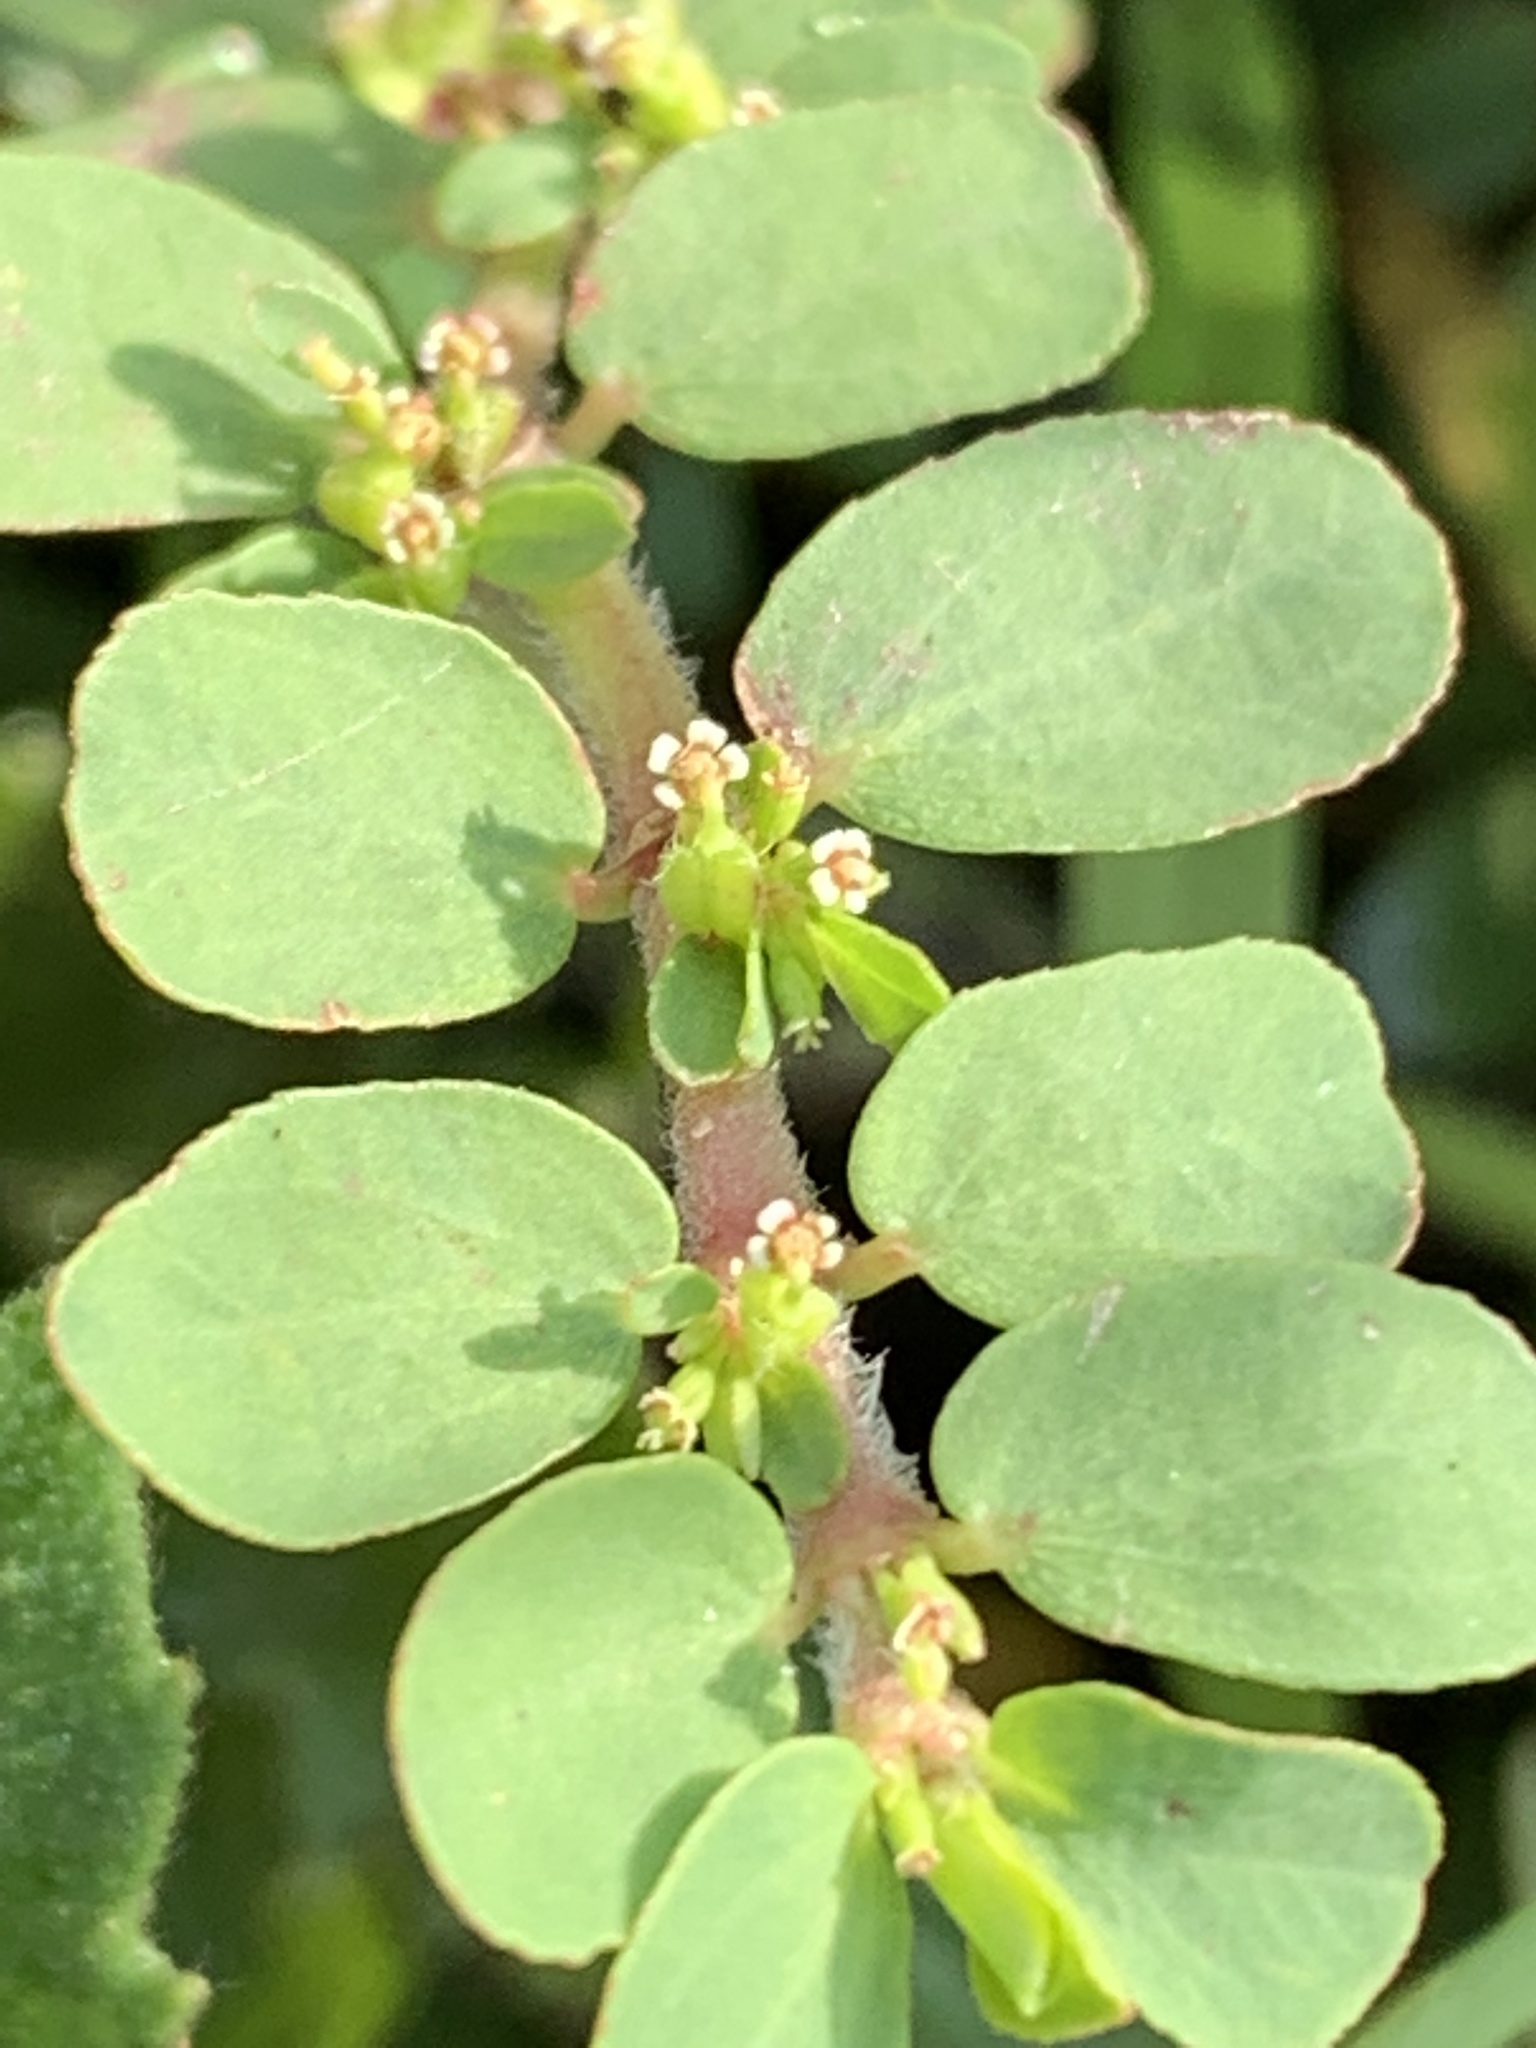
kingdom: Plantae
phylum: Tracheophyta
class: Magnoliopsida
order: Malpighiales
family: Euphorbiaceae
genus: Euphorbia
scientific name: Euphorbia mendezii
